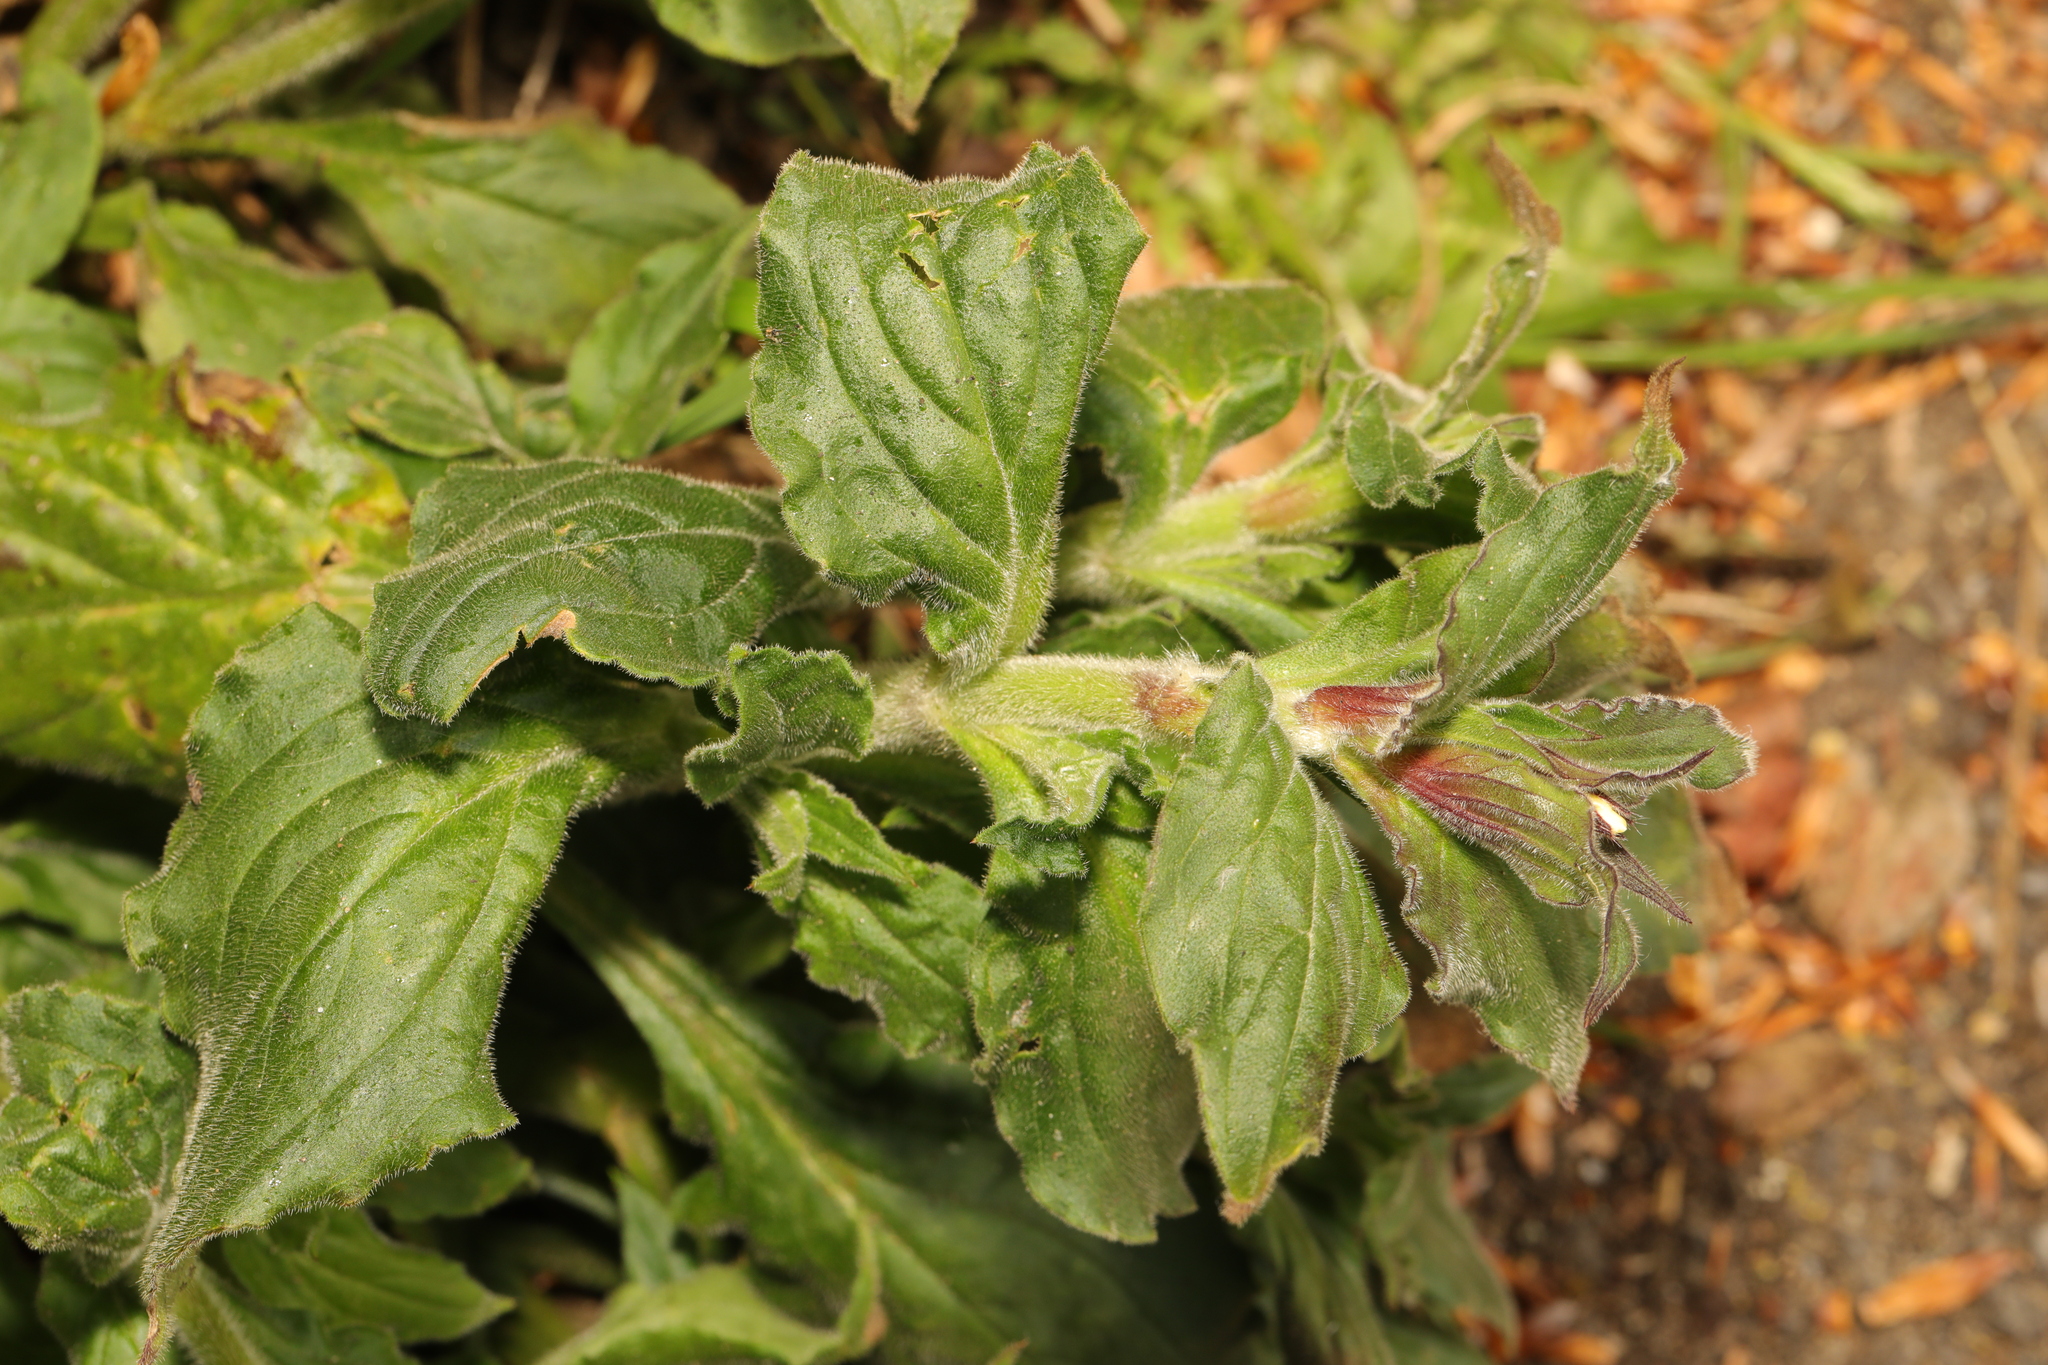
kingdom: Plantae
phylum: Tracheophyta
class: Magnoliopsida
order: Caryophyllales
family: Caryophyllaceae
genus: Silene
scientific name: Silene dioica
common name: Red campion
